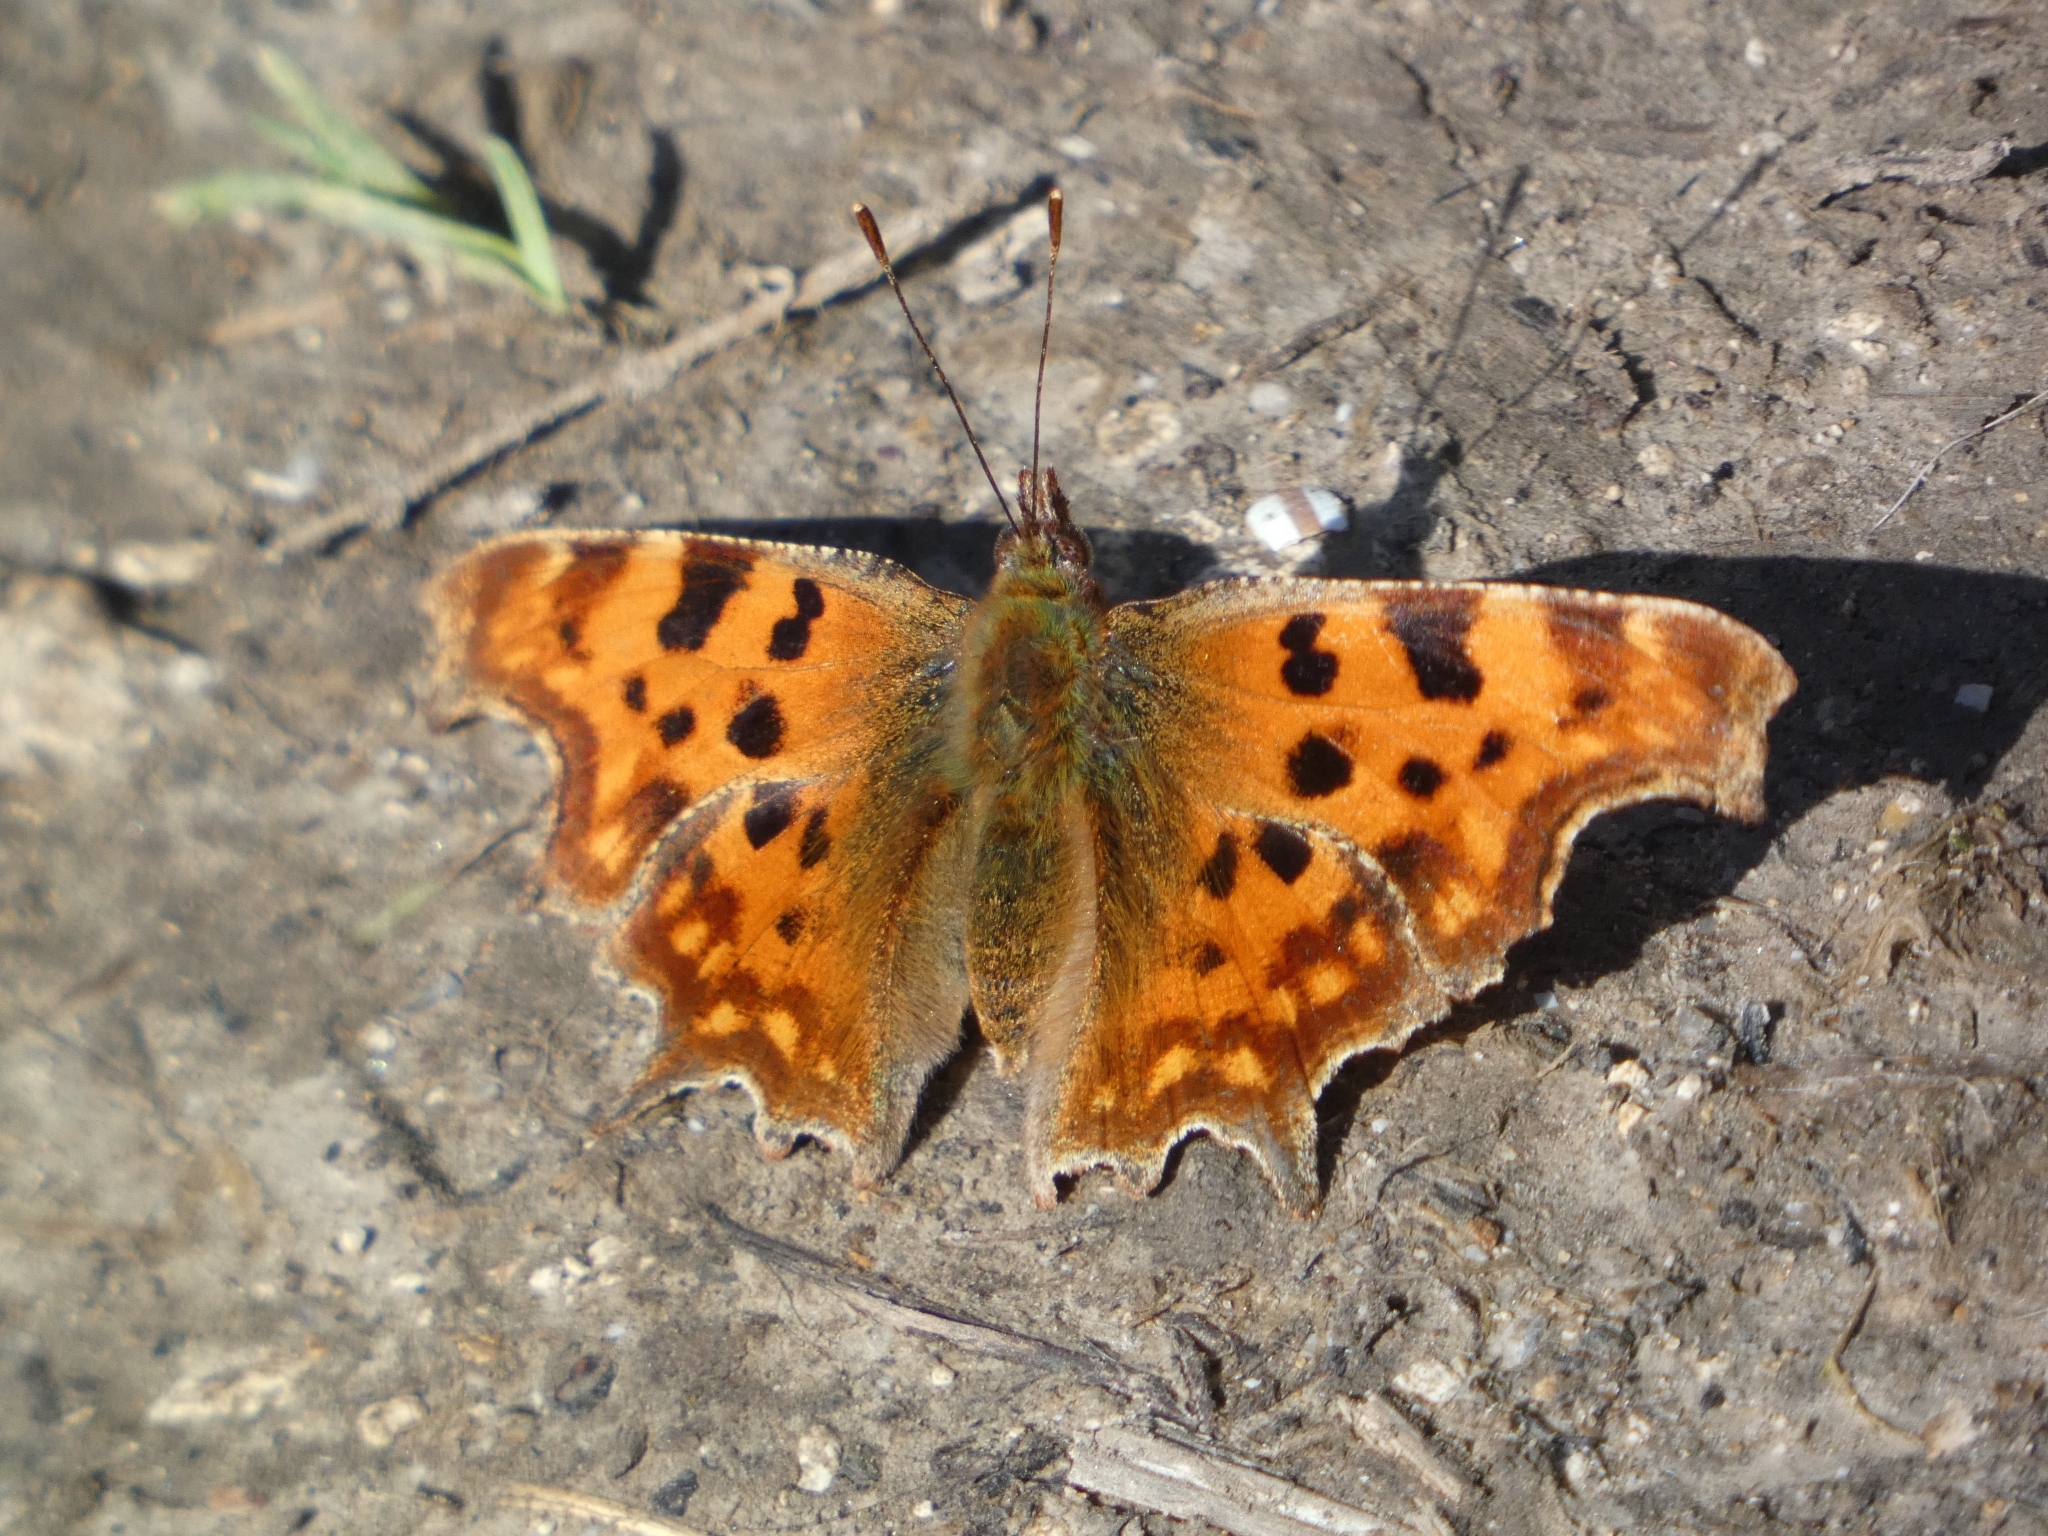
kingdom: Animalia
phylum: Arthropoda
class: Insecta
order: Lepidoptera
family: Nymphalidae
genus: Polygonia
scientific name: Polygonia c-album
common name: Comma
